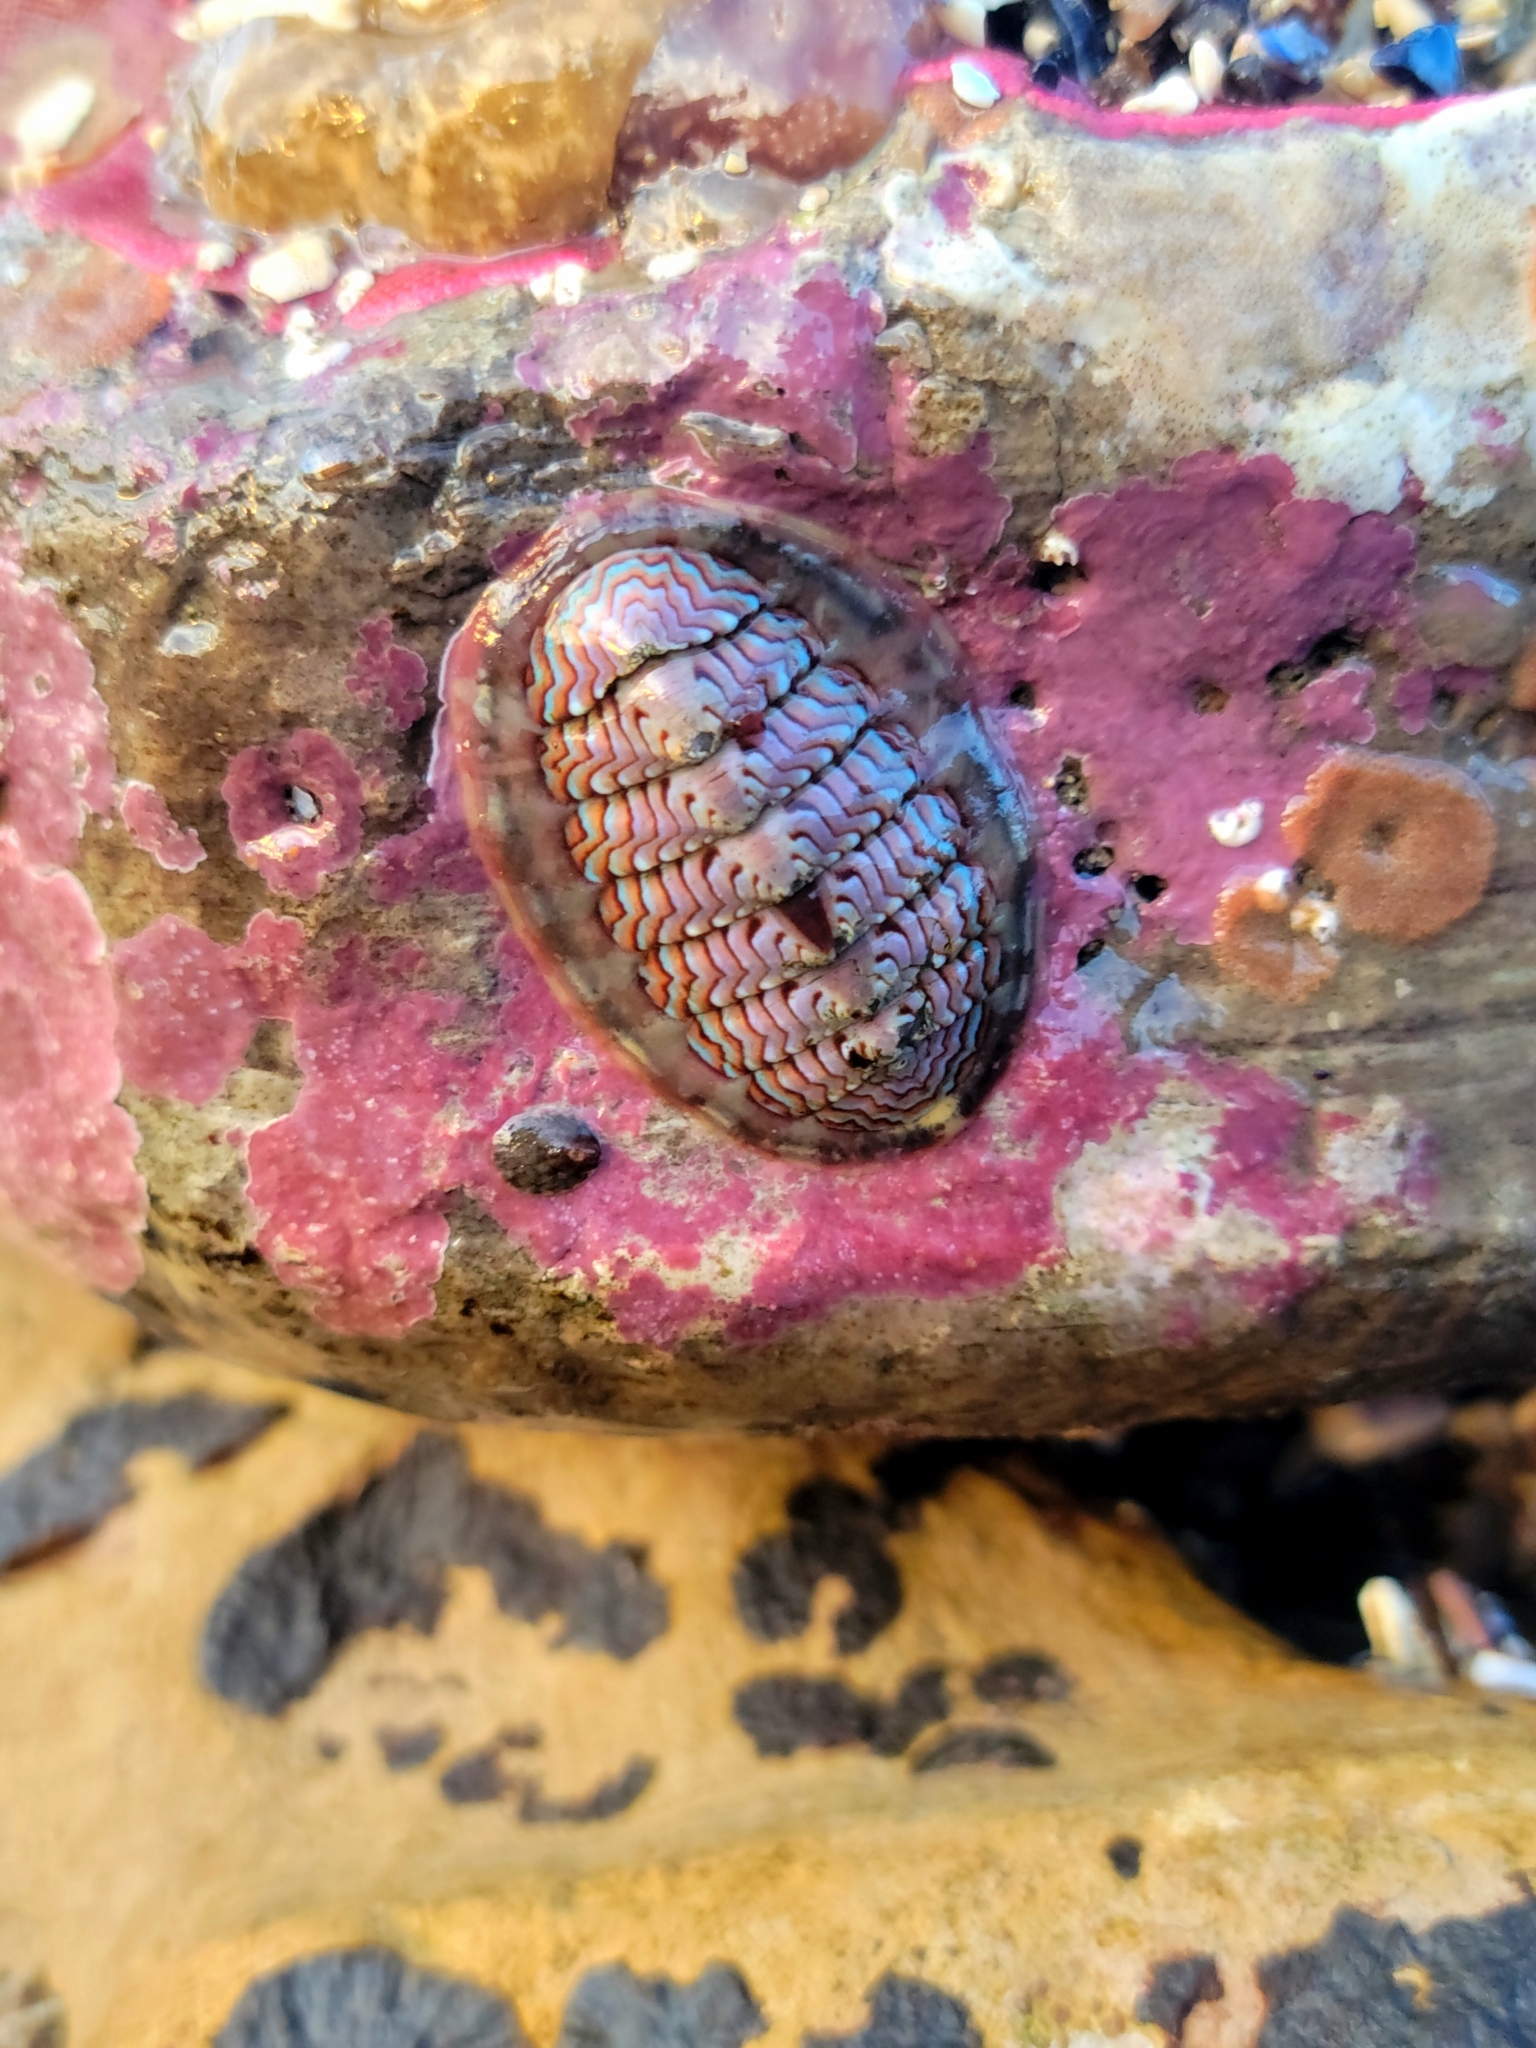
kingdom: Animalia
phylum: Mollusca
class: Polyplacophora
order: Chitonida
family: Tonicellidae
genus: Tonicella
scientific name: Tonicella lokii
